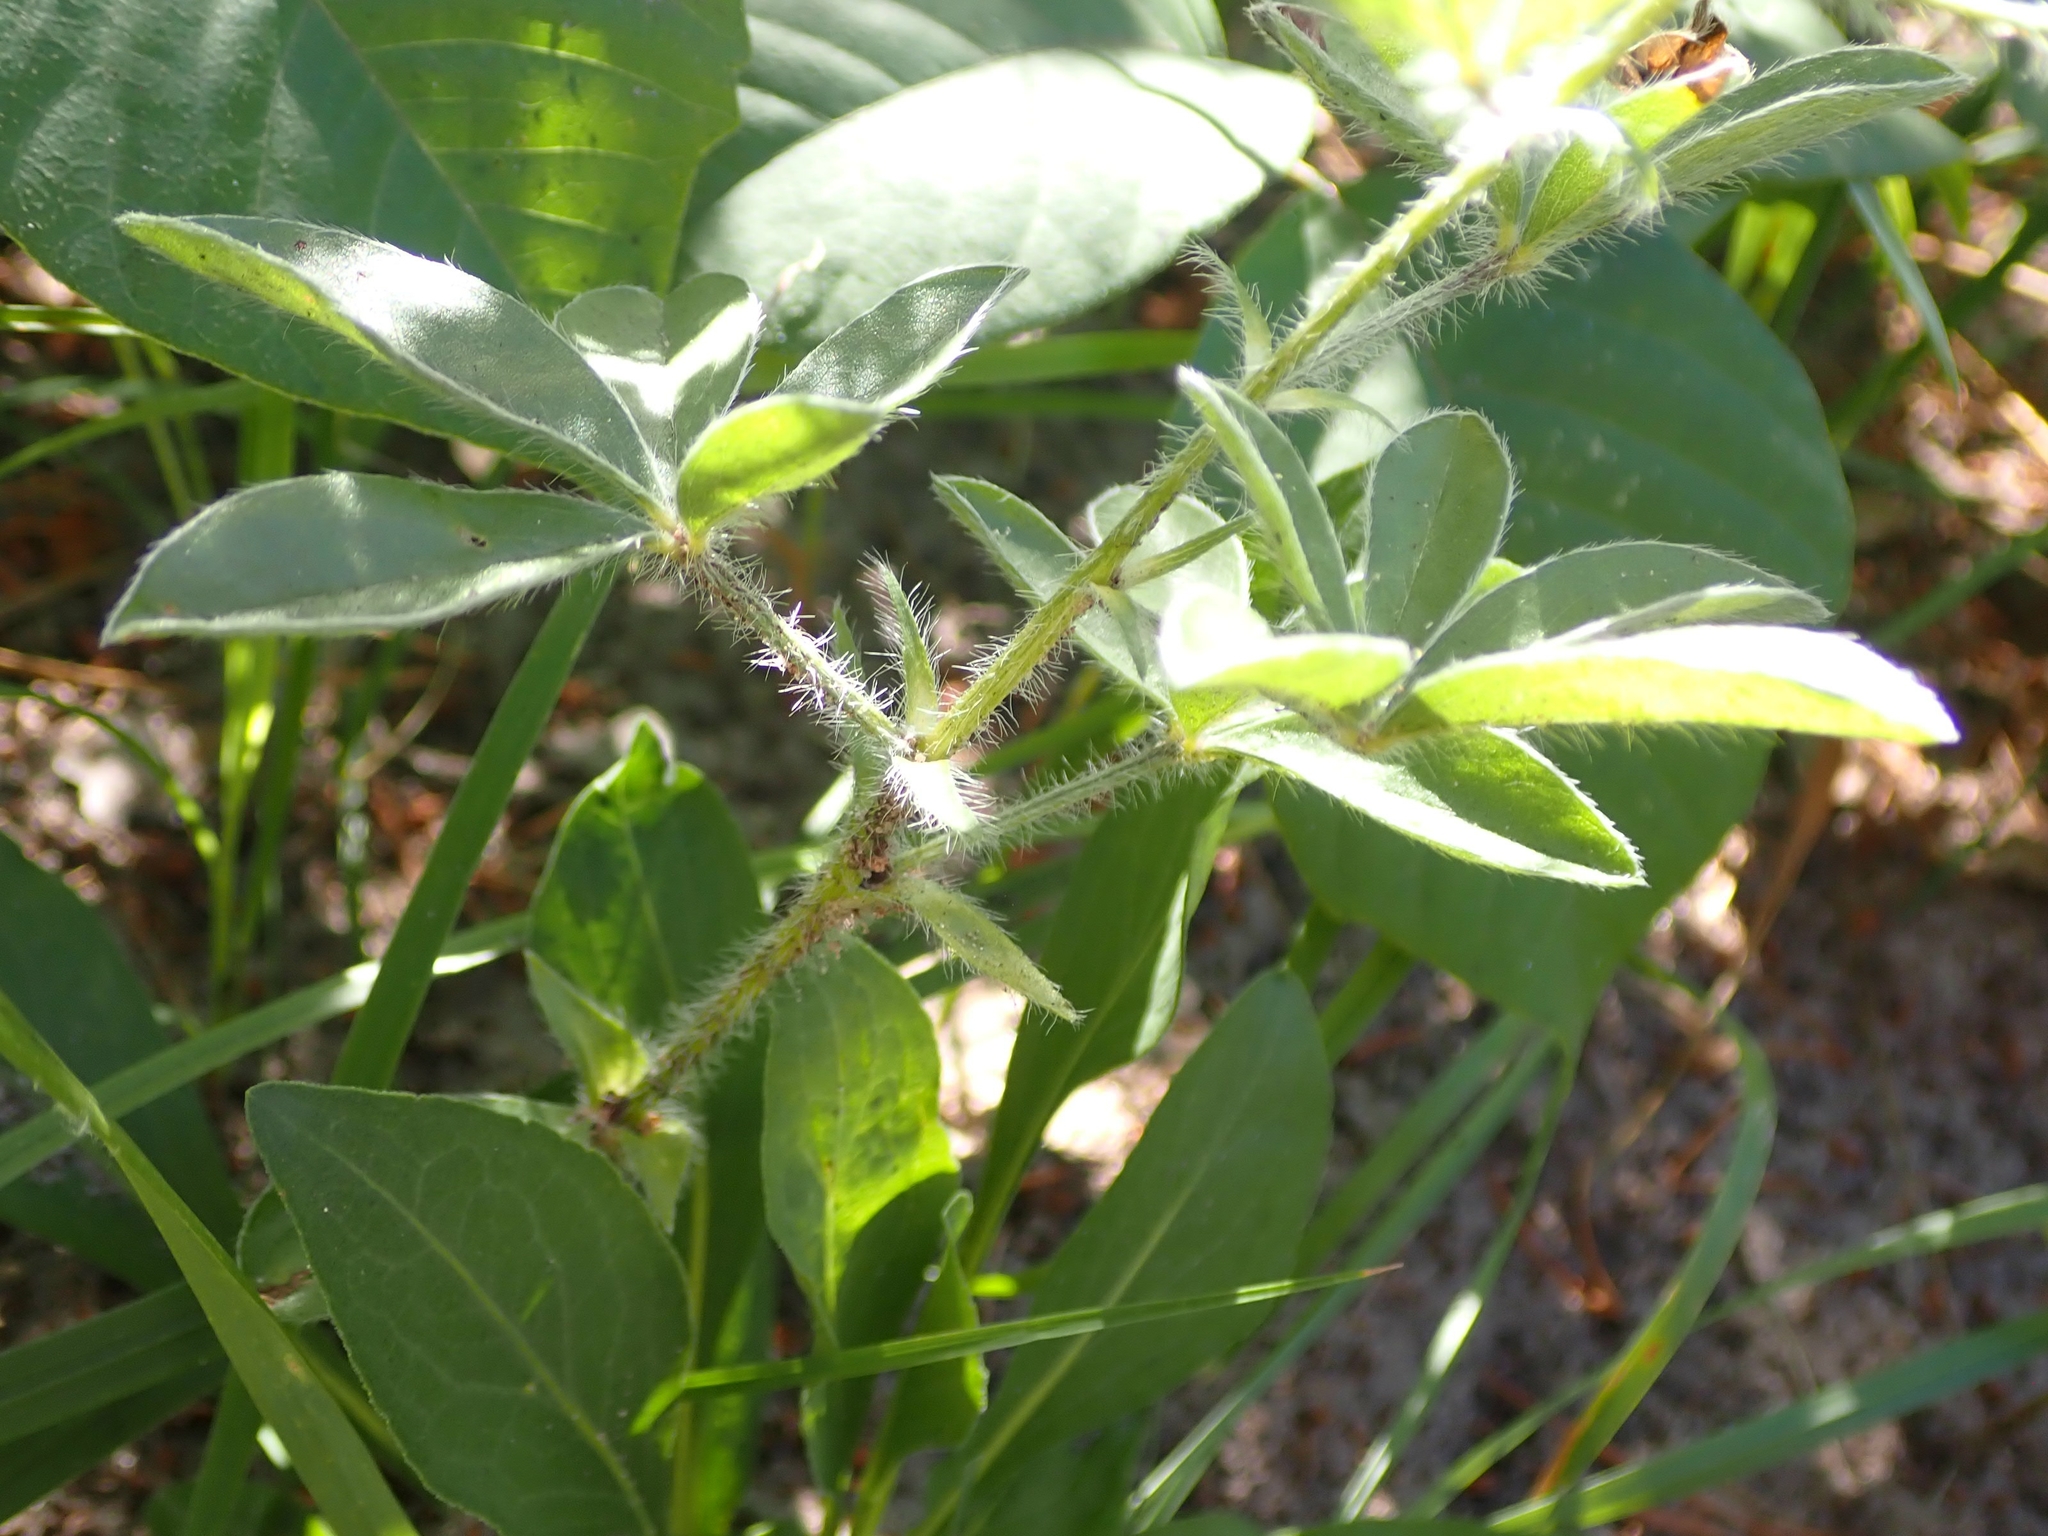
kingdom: Plantae
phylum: Tracheophyta
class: Magnoliopsida
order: Fabales
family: Fabaceae
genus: Pediomelum
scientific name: Pediomelum esculentum
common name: Indian-turnip
